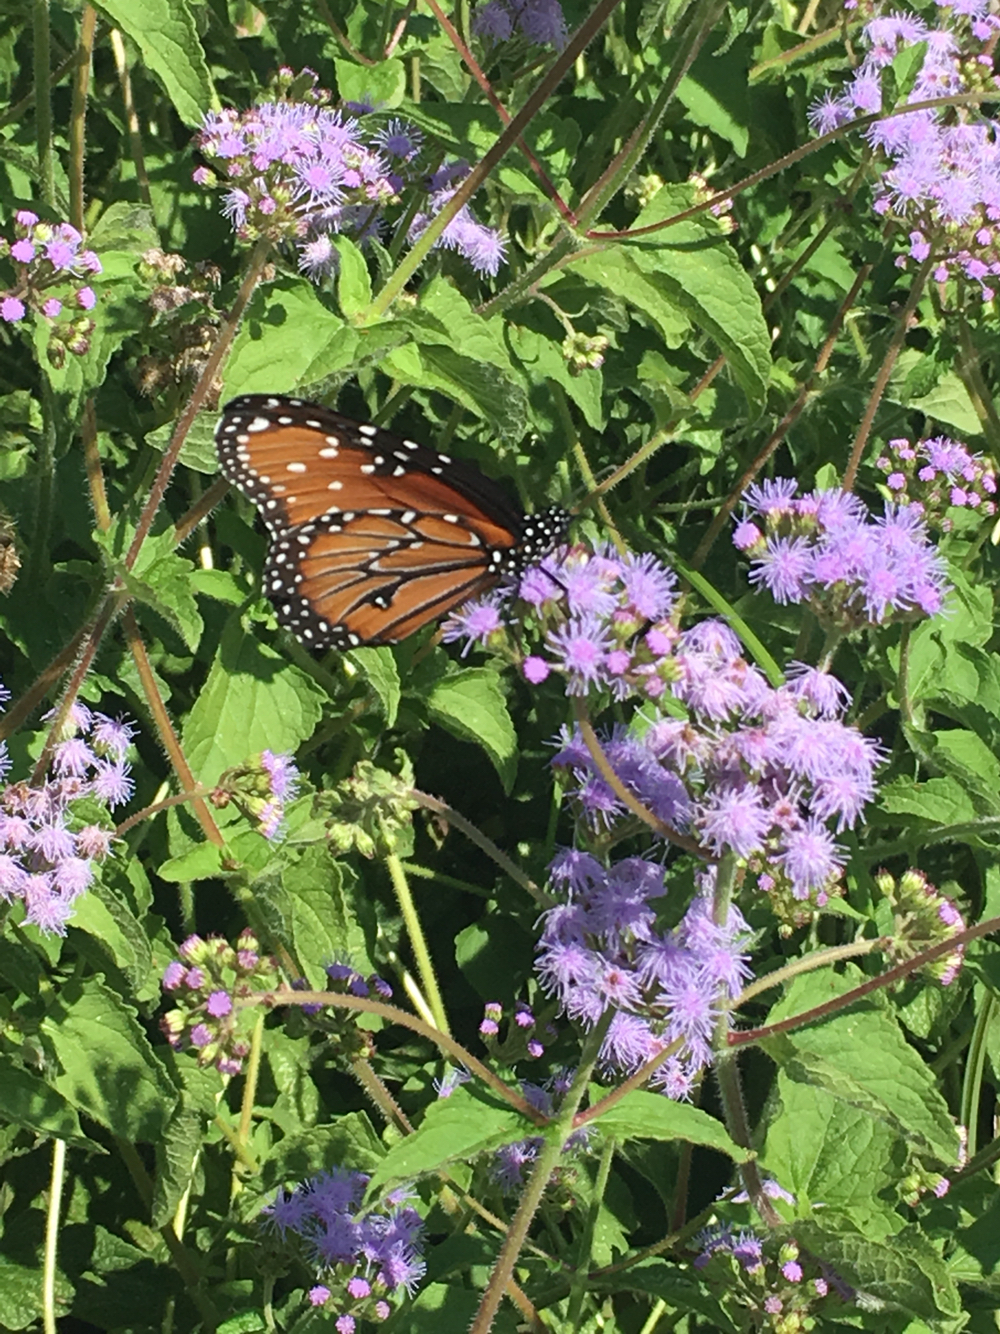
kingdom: Animalia
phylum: Arthropoda
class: Insecta
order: Lepidoptera
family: Nymphalidae
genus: Danaus
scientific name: Danaus gilippus
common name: Queen
